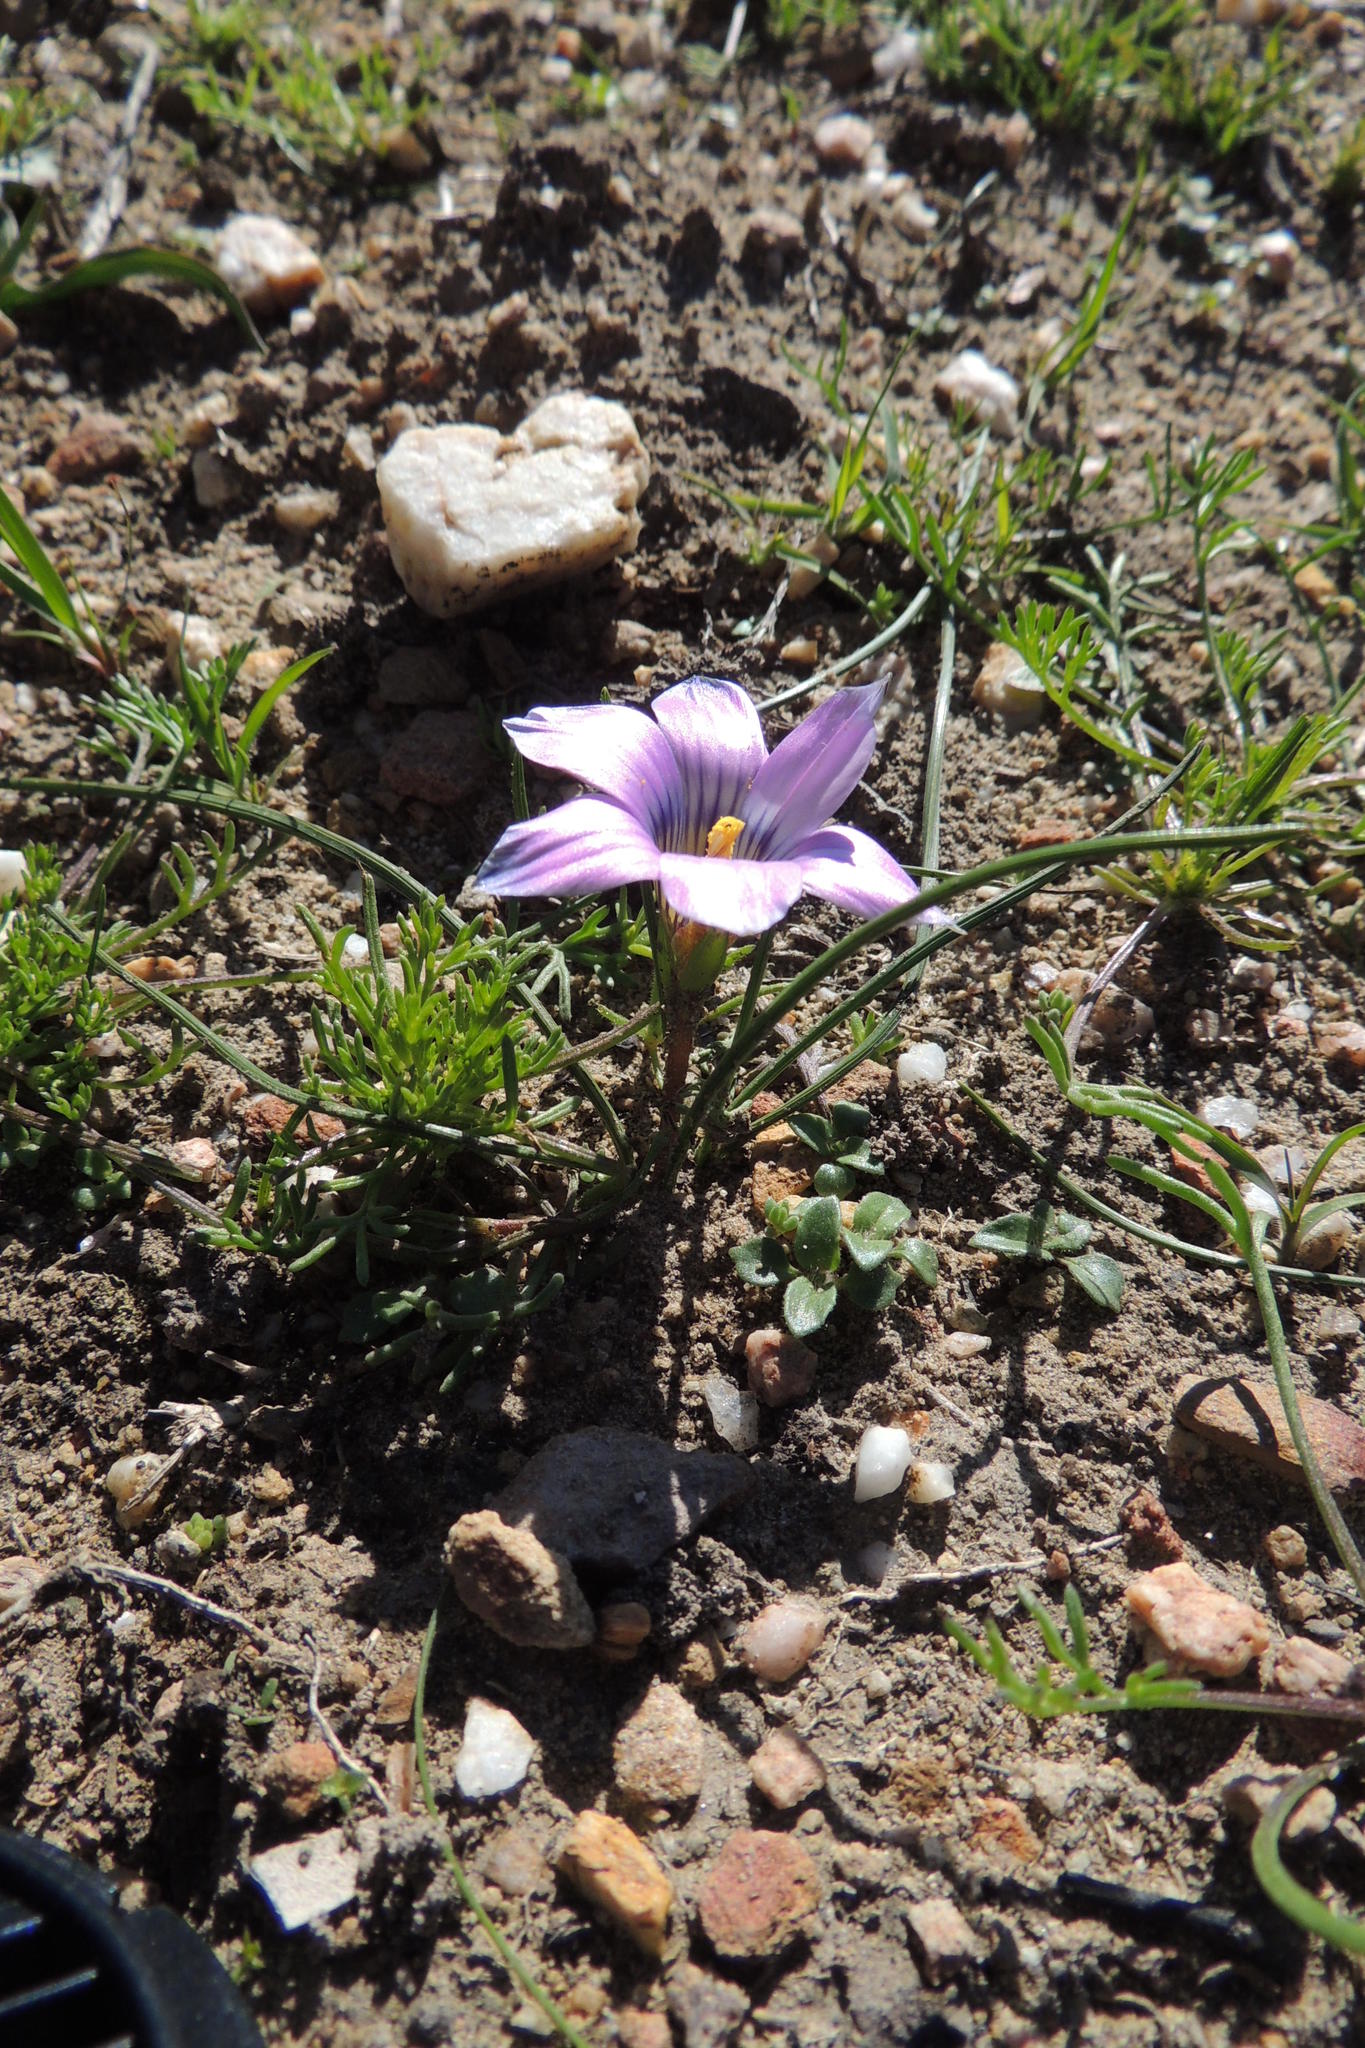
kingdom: Plantae
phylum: Tracheophyta
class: Liliopsida
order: Asparagales
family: Iridaceae
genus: Romulea
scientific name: Romulea atrandra
